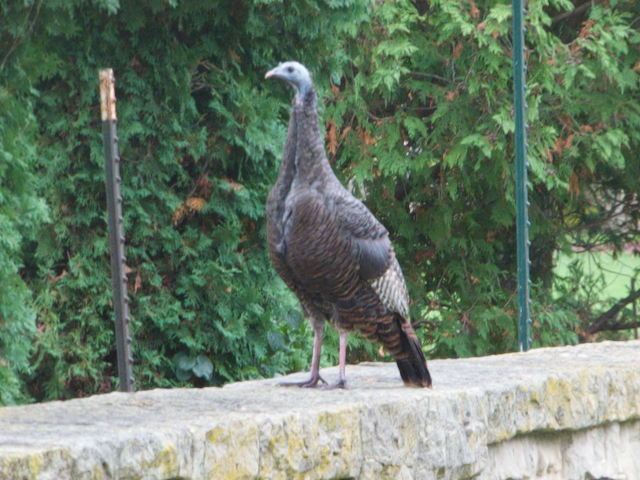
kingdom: Animalia
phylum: Chordata
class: Aves
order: Galliformes
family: Phasianidae
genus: Meleagris
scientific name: Meleagris gallopavo
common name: Wild turkey
